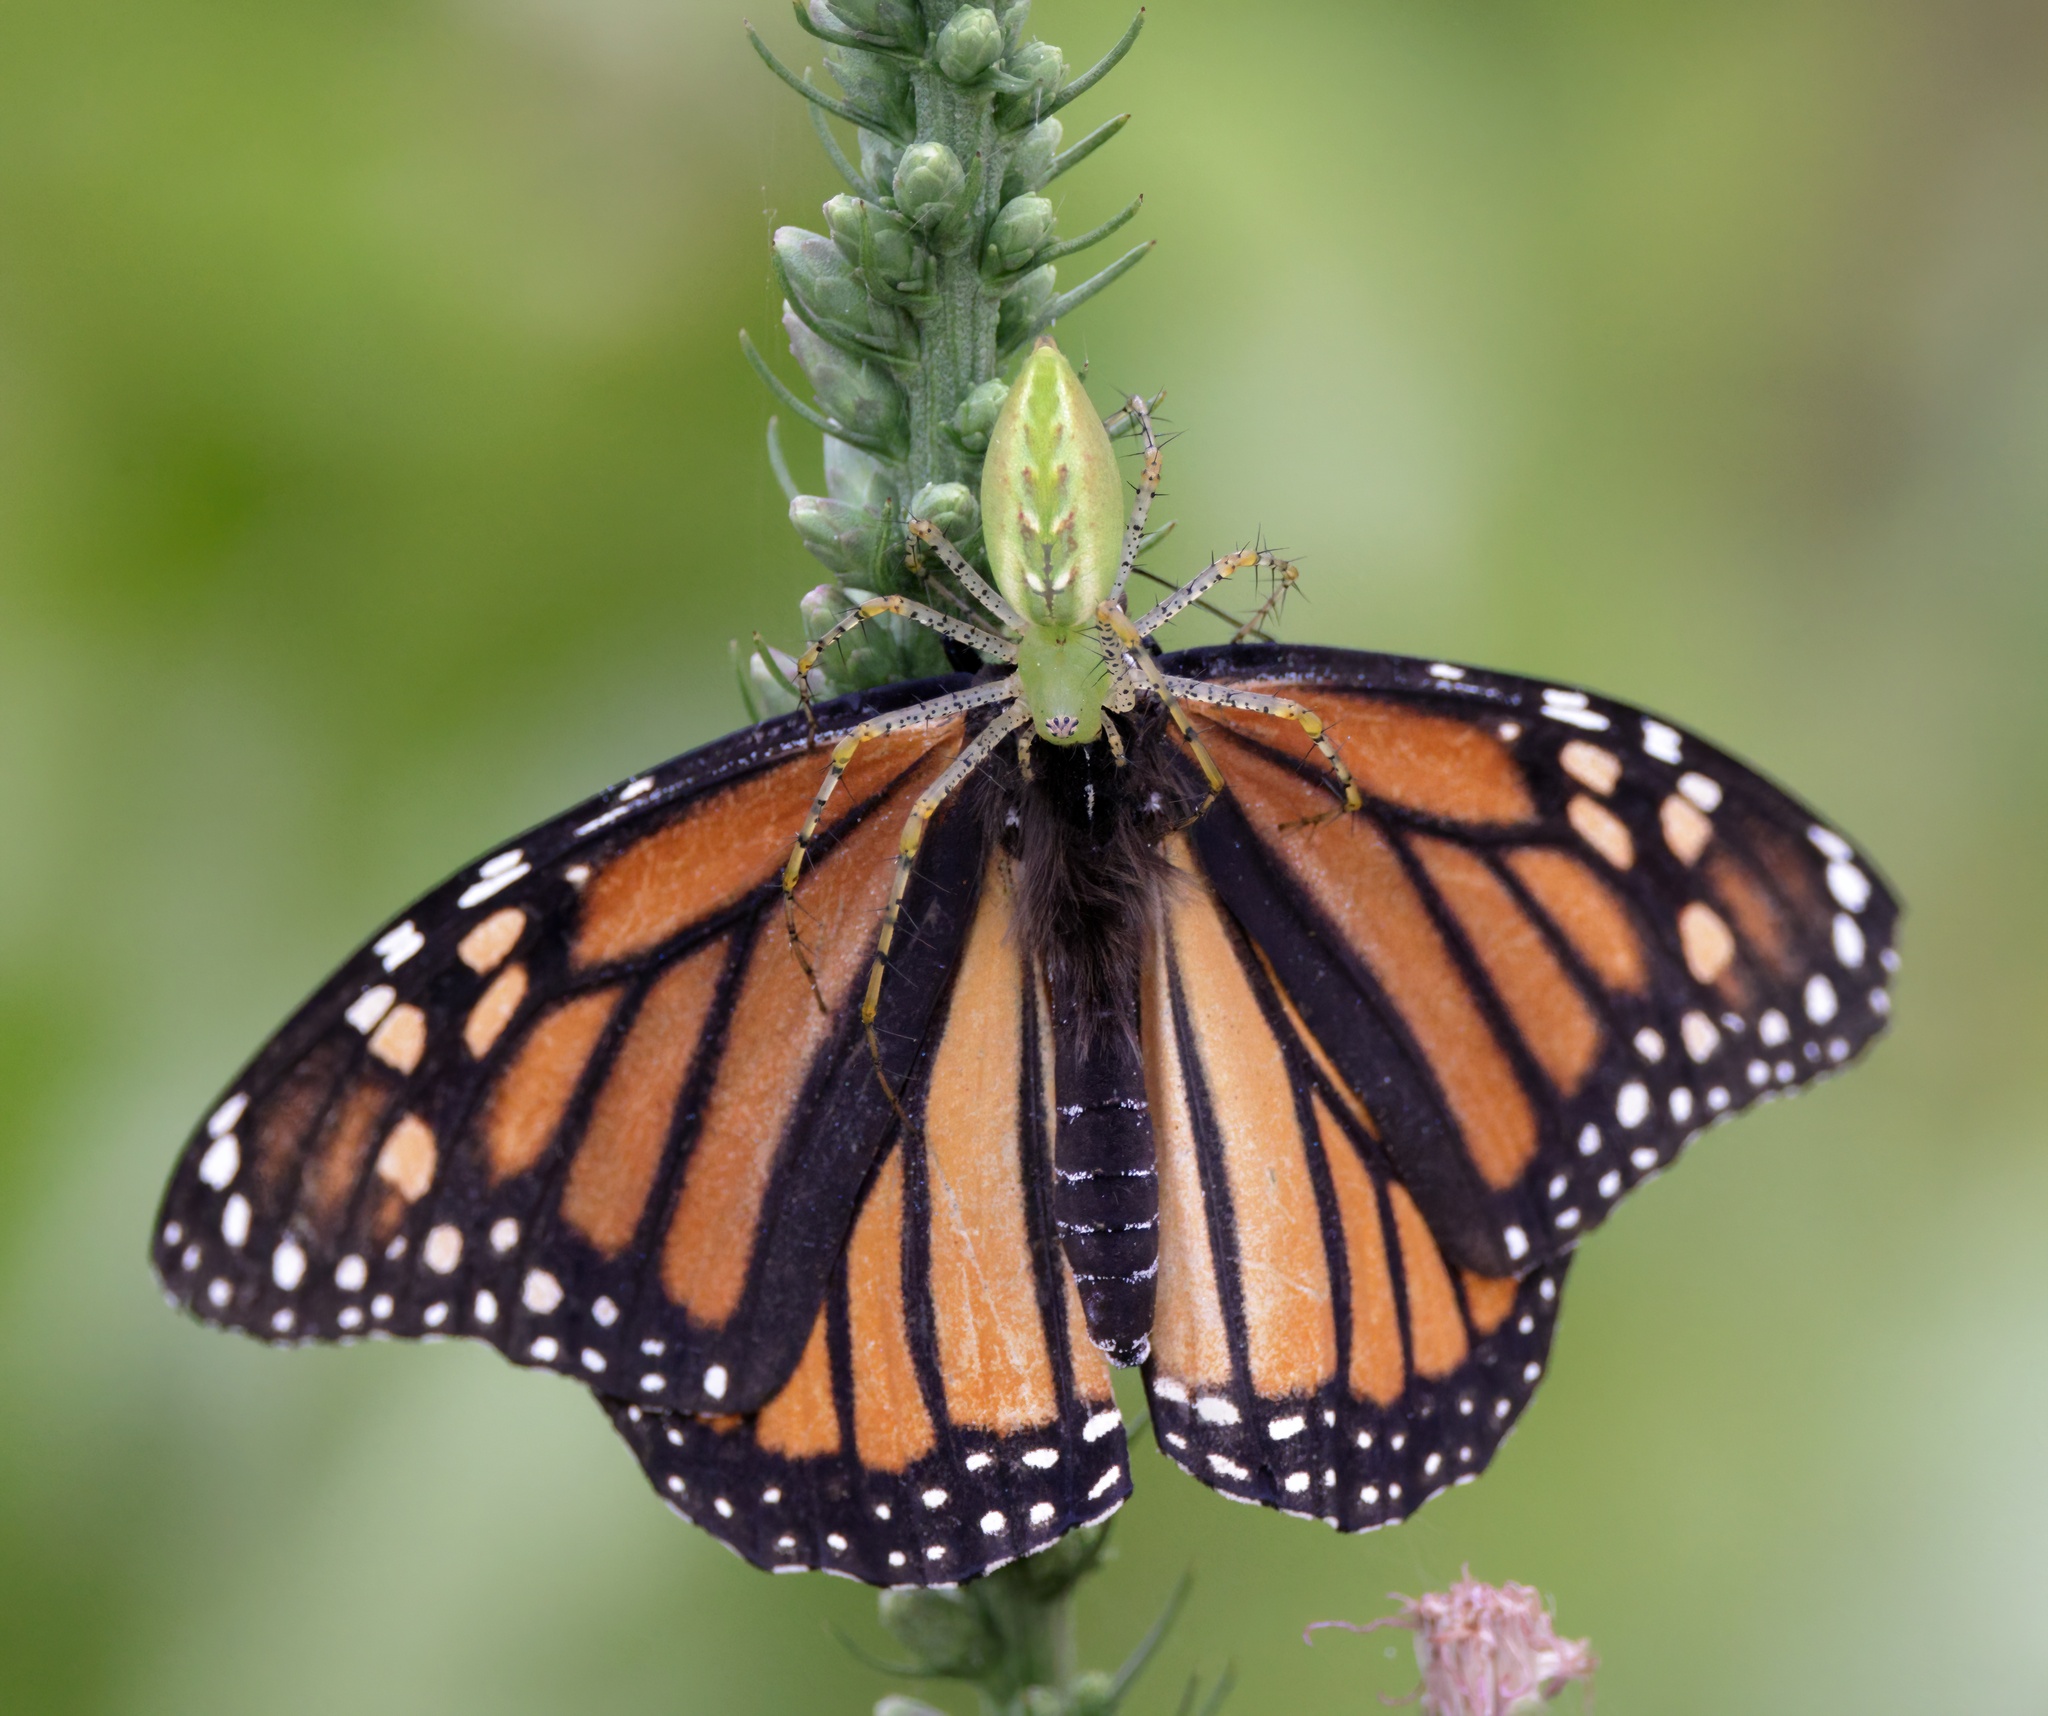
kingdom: Animalia
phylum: Arthropoda
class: Arachnida
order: Araneae
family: Oxyopidae
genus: Peucetia
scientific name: Peucetia viridans
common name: Lynx spiders
